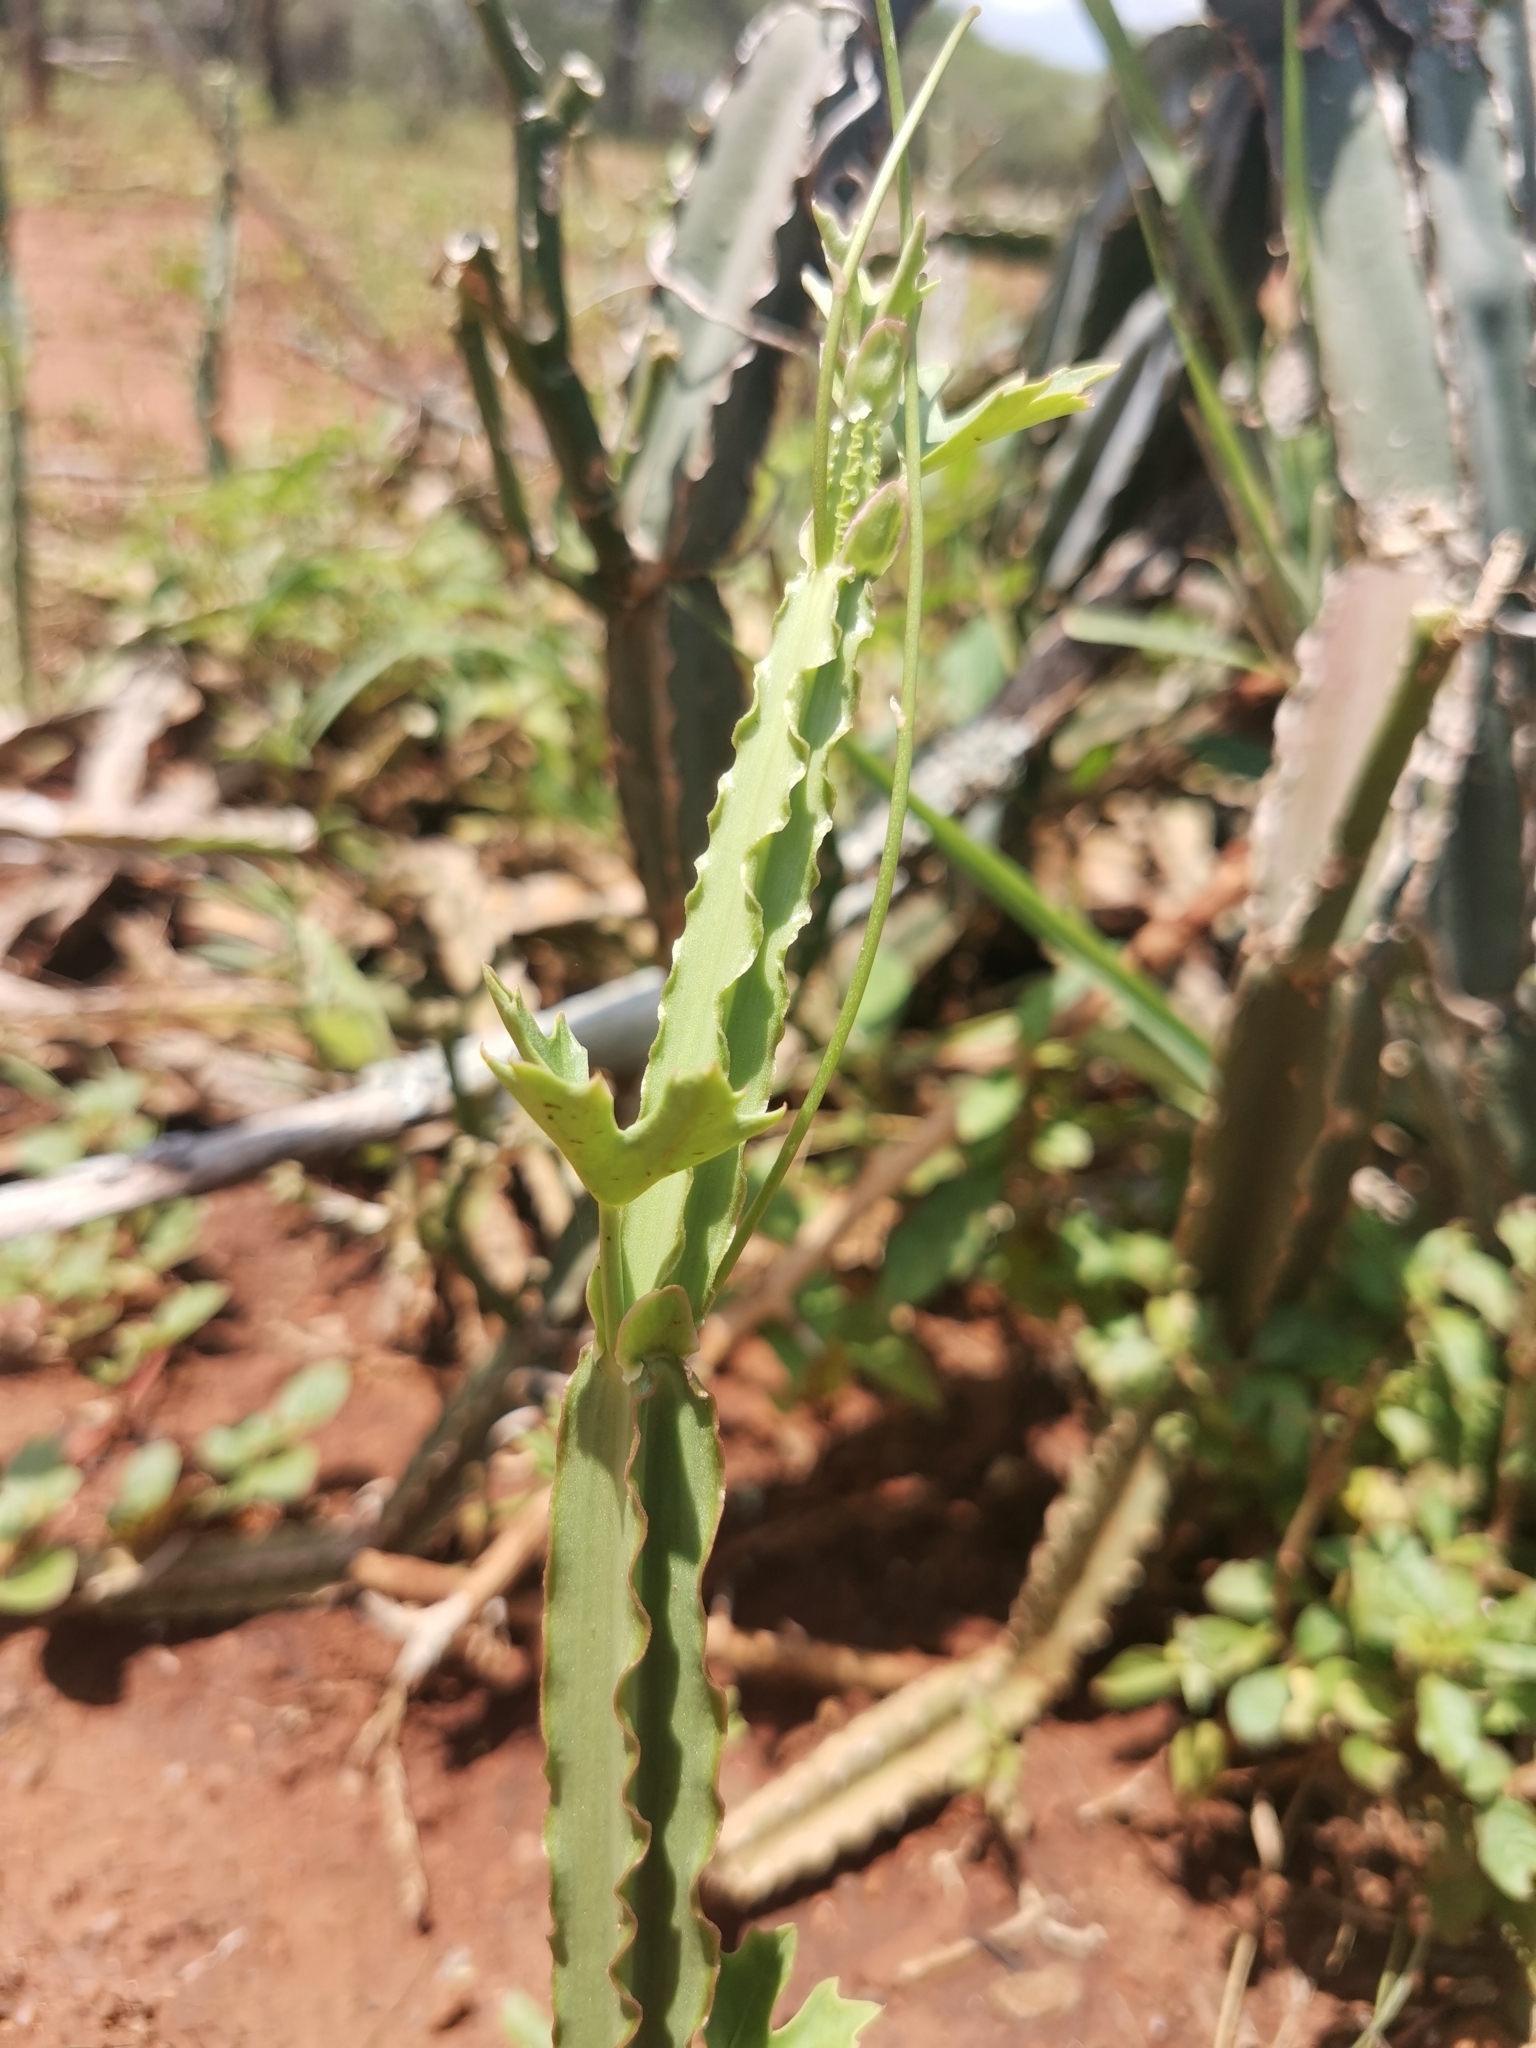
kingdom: Plantae
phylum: Tracheophyta
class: Magnoliopsida
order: Vitales
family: Vitaceae
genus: Cissus
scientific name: Cissus quadrangularis
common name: Veldt-grape
